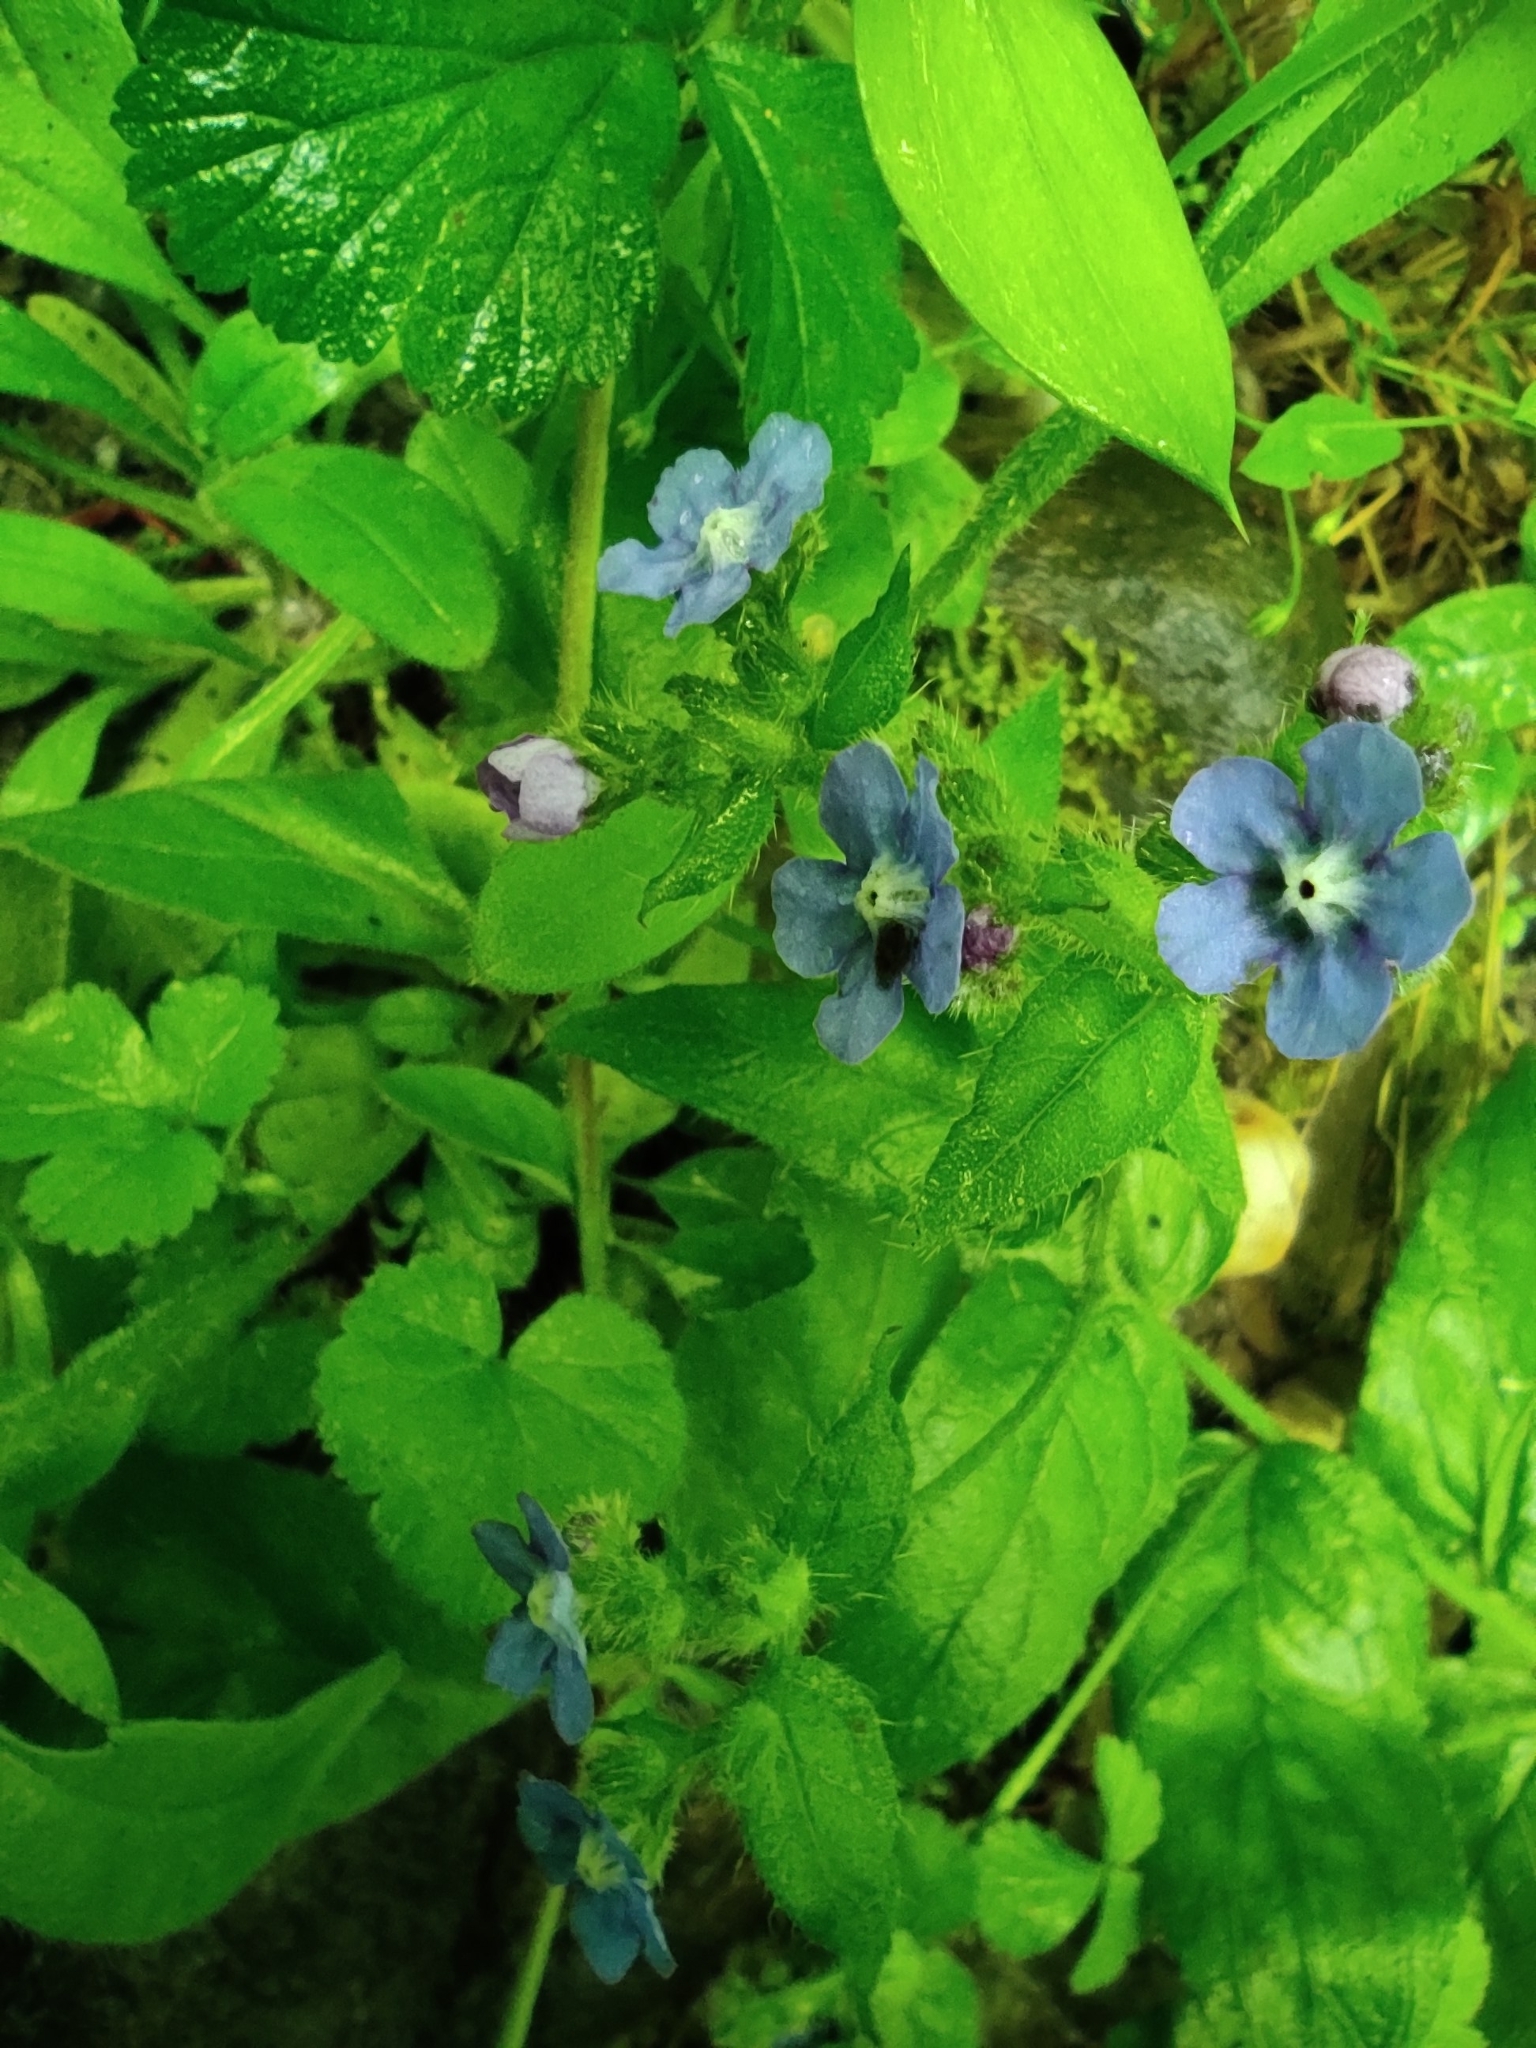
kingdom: Plantae
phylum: Tracheophyta
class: Magnoliopsida
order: Boraginales
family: Boraginaceae
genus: Pentaglottis
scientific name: Pentaglottis sempervirens
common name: Green alkanet
